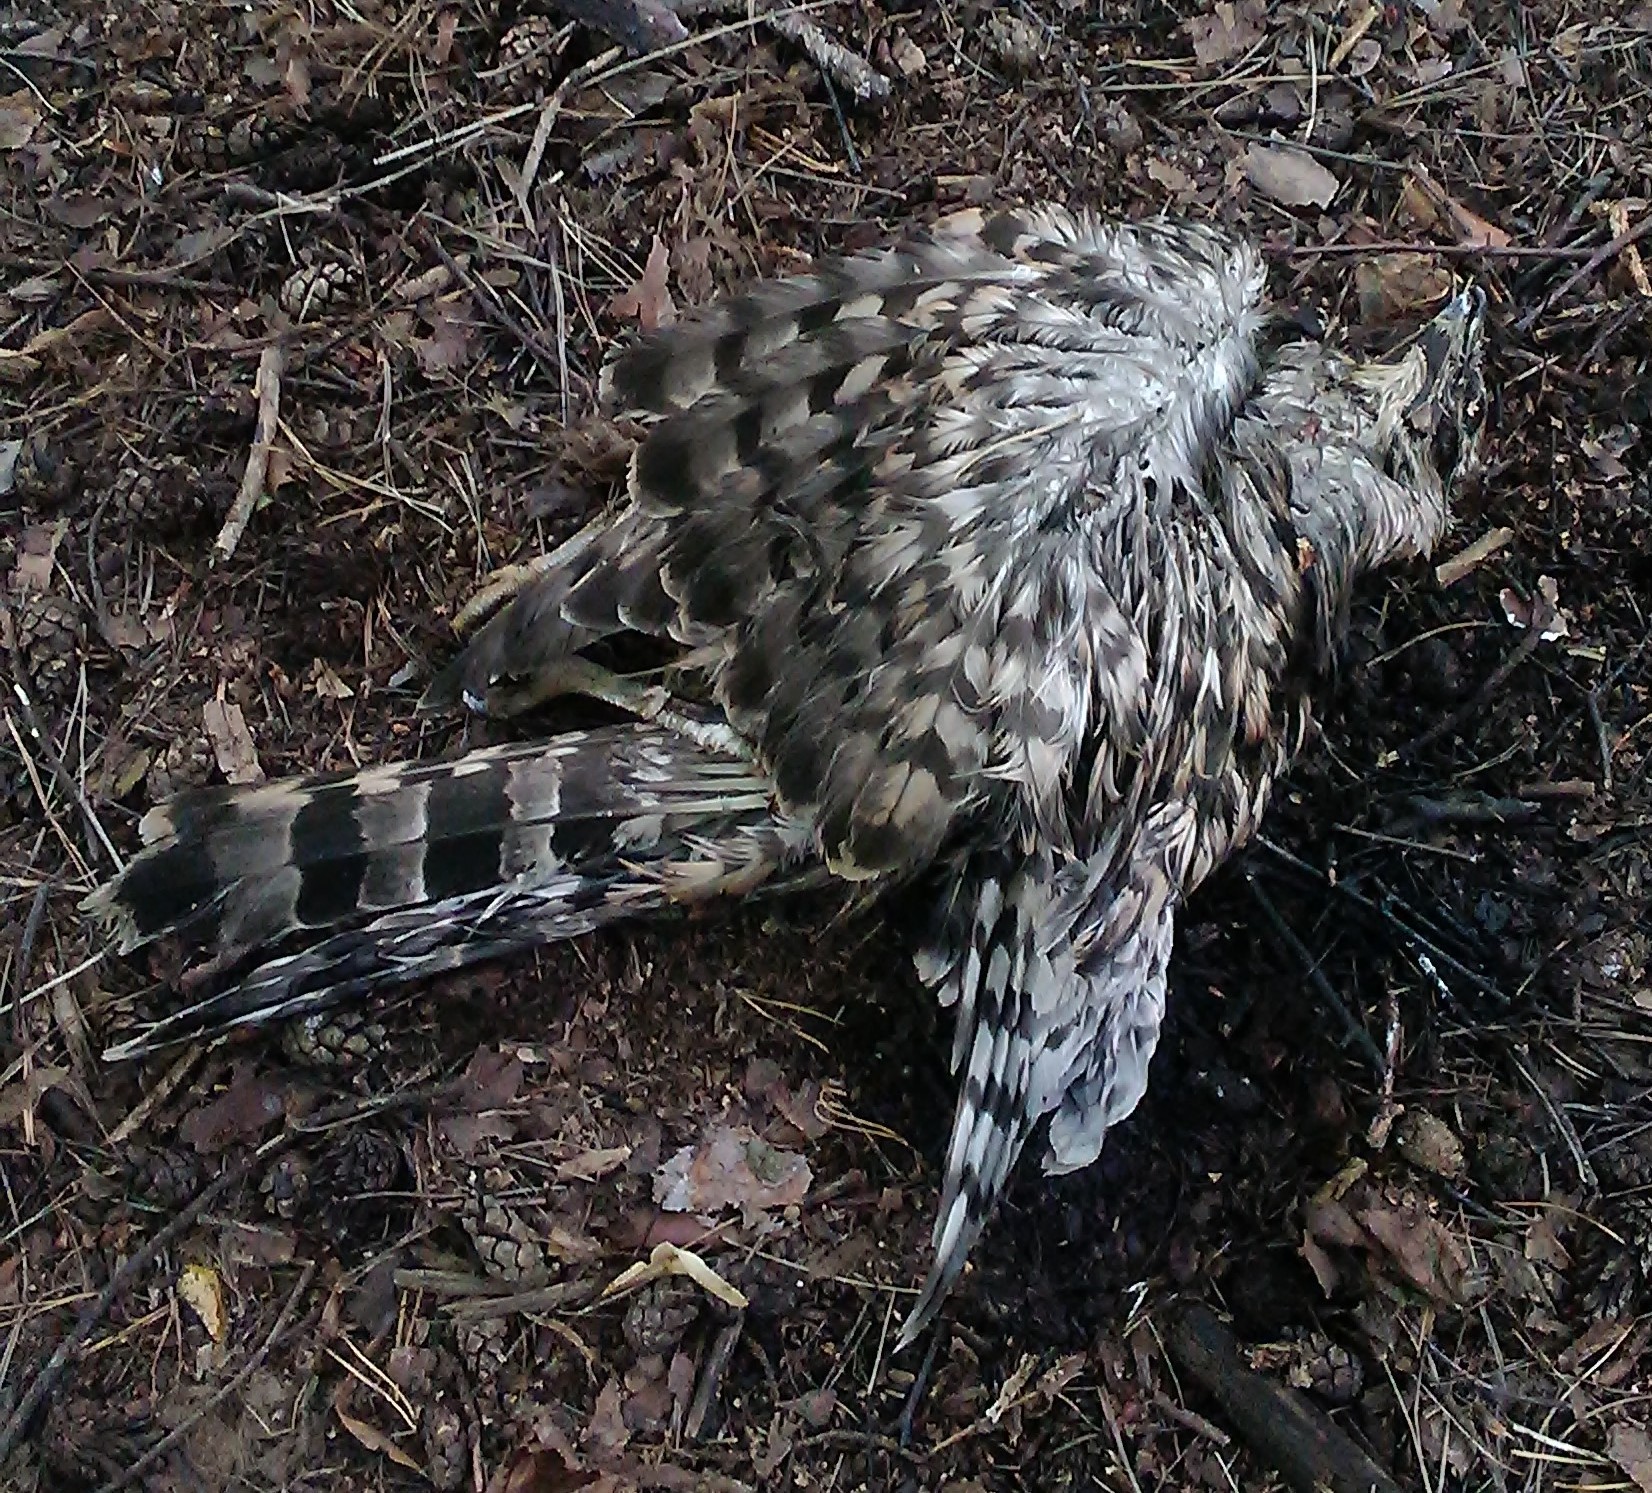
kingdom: Animalia
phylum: Chordata
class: Aves
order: Accipitriformes
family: Accipitridae
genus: Accipiter
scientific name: Accipiter gentilis
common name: Northern goshawk
